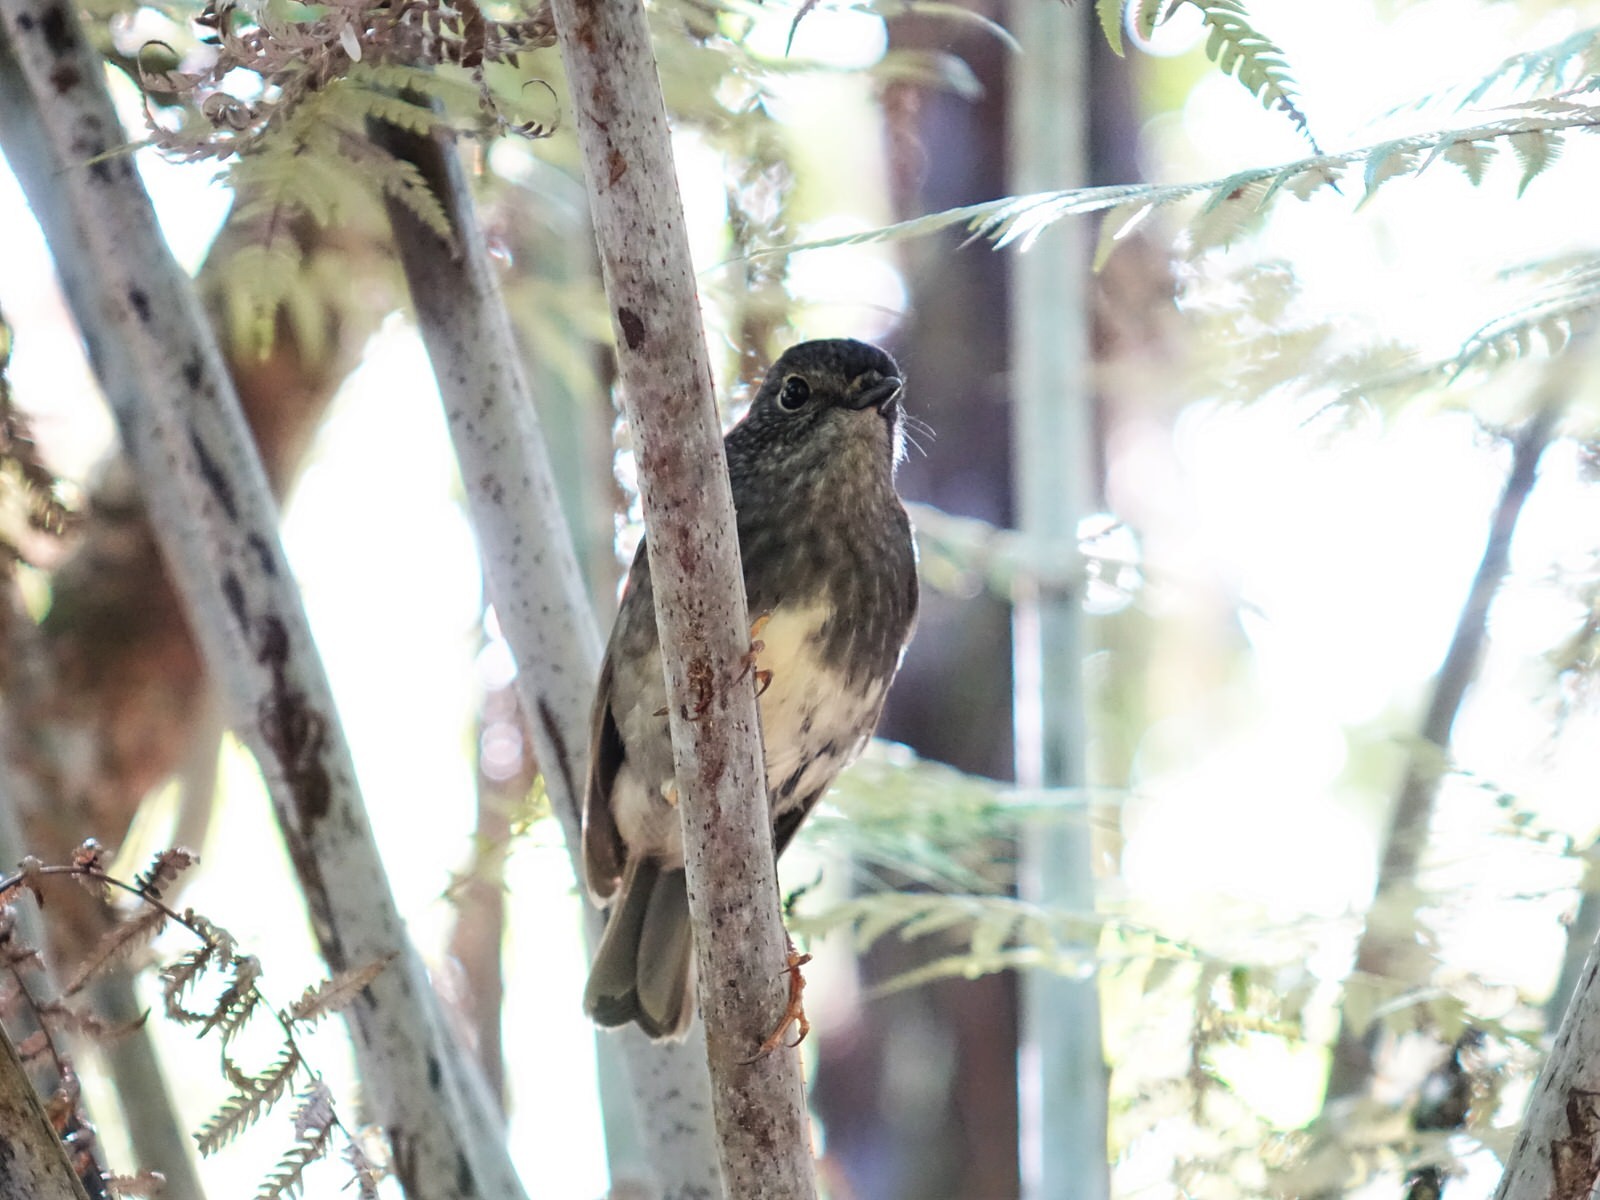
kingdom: Animalia
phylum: Chordata
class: Aves
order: Passeriformes
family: Petroicidae
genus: Petroica
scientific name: Petroica australis
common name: New zealand robin
